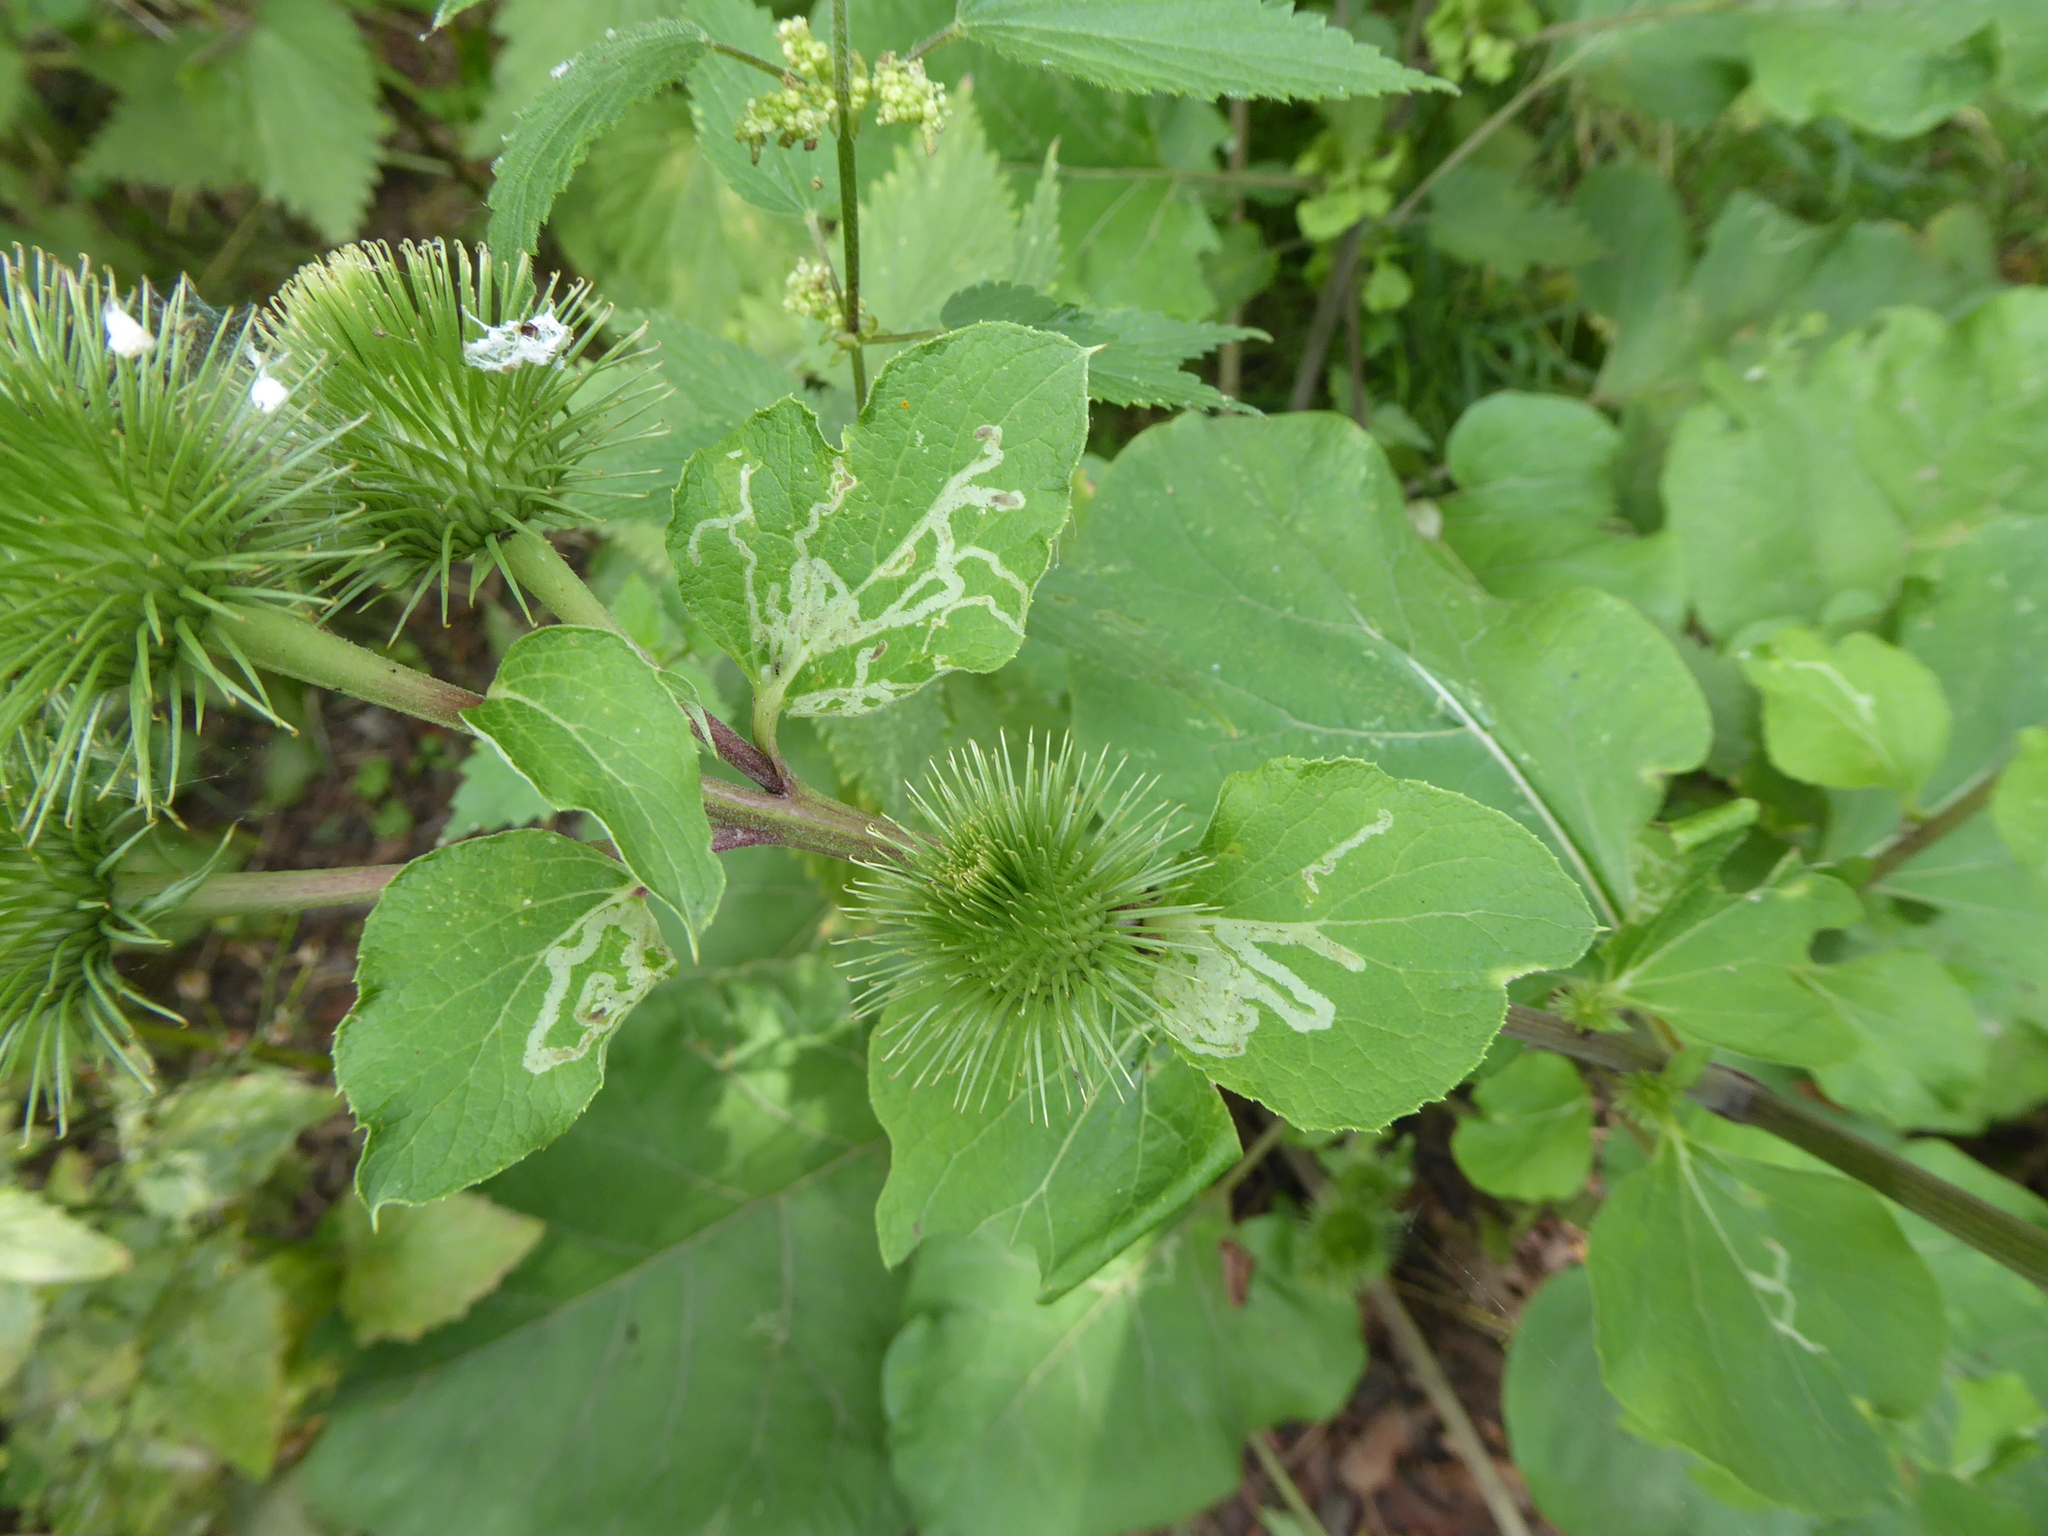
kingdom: Animalia
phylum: Arthropoda
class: Insecta
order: Diptera
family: Agromyzidae
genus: Phytomyza
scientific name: Phytomyza lappae
